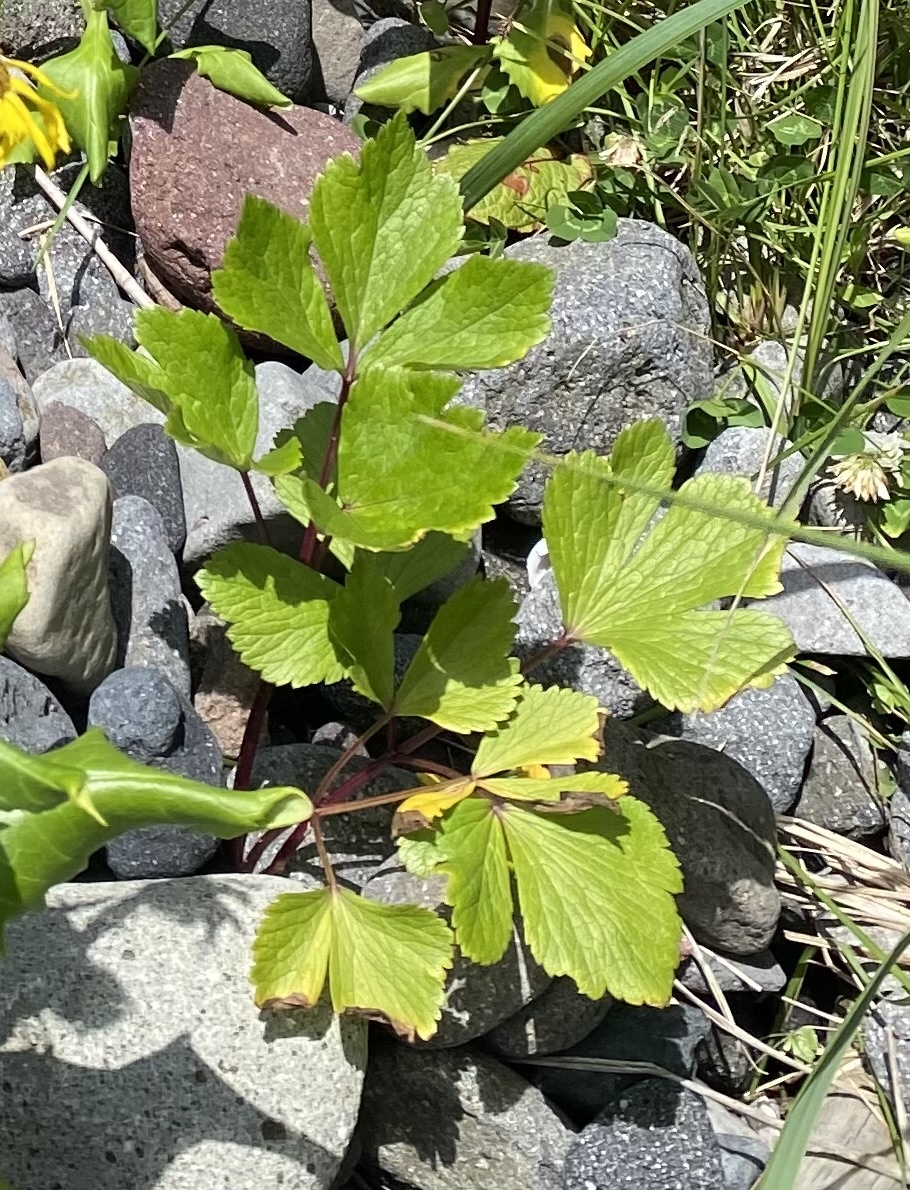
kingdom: Plantae
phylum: Tracheophyta
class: Magnoliopsida
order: Apiales
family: Apiaceae
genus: Ligusticum
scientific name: Ligusticum scothicum
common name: Beach lovage
